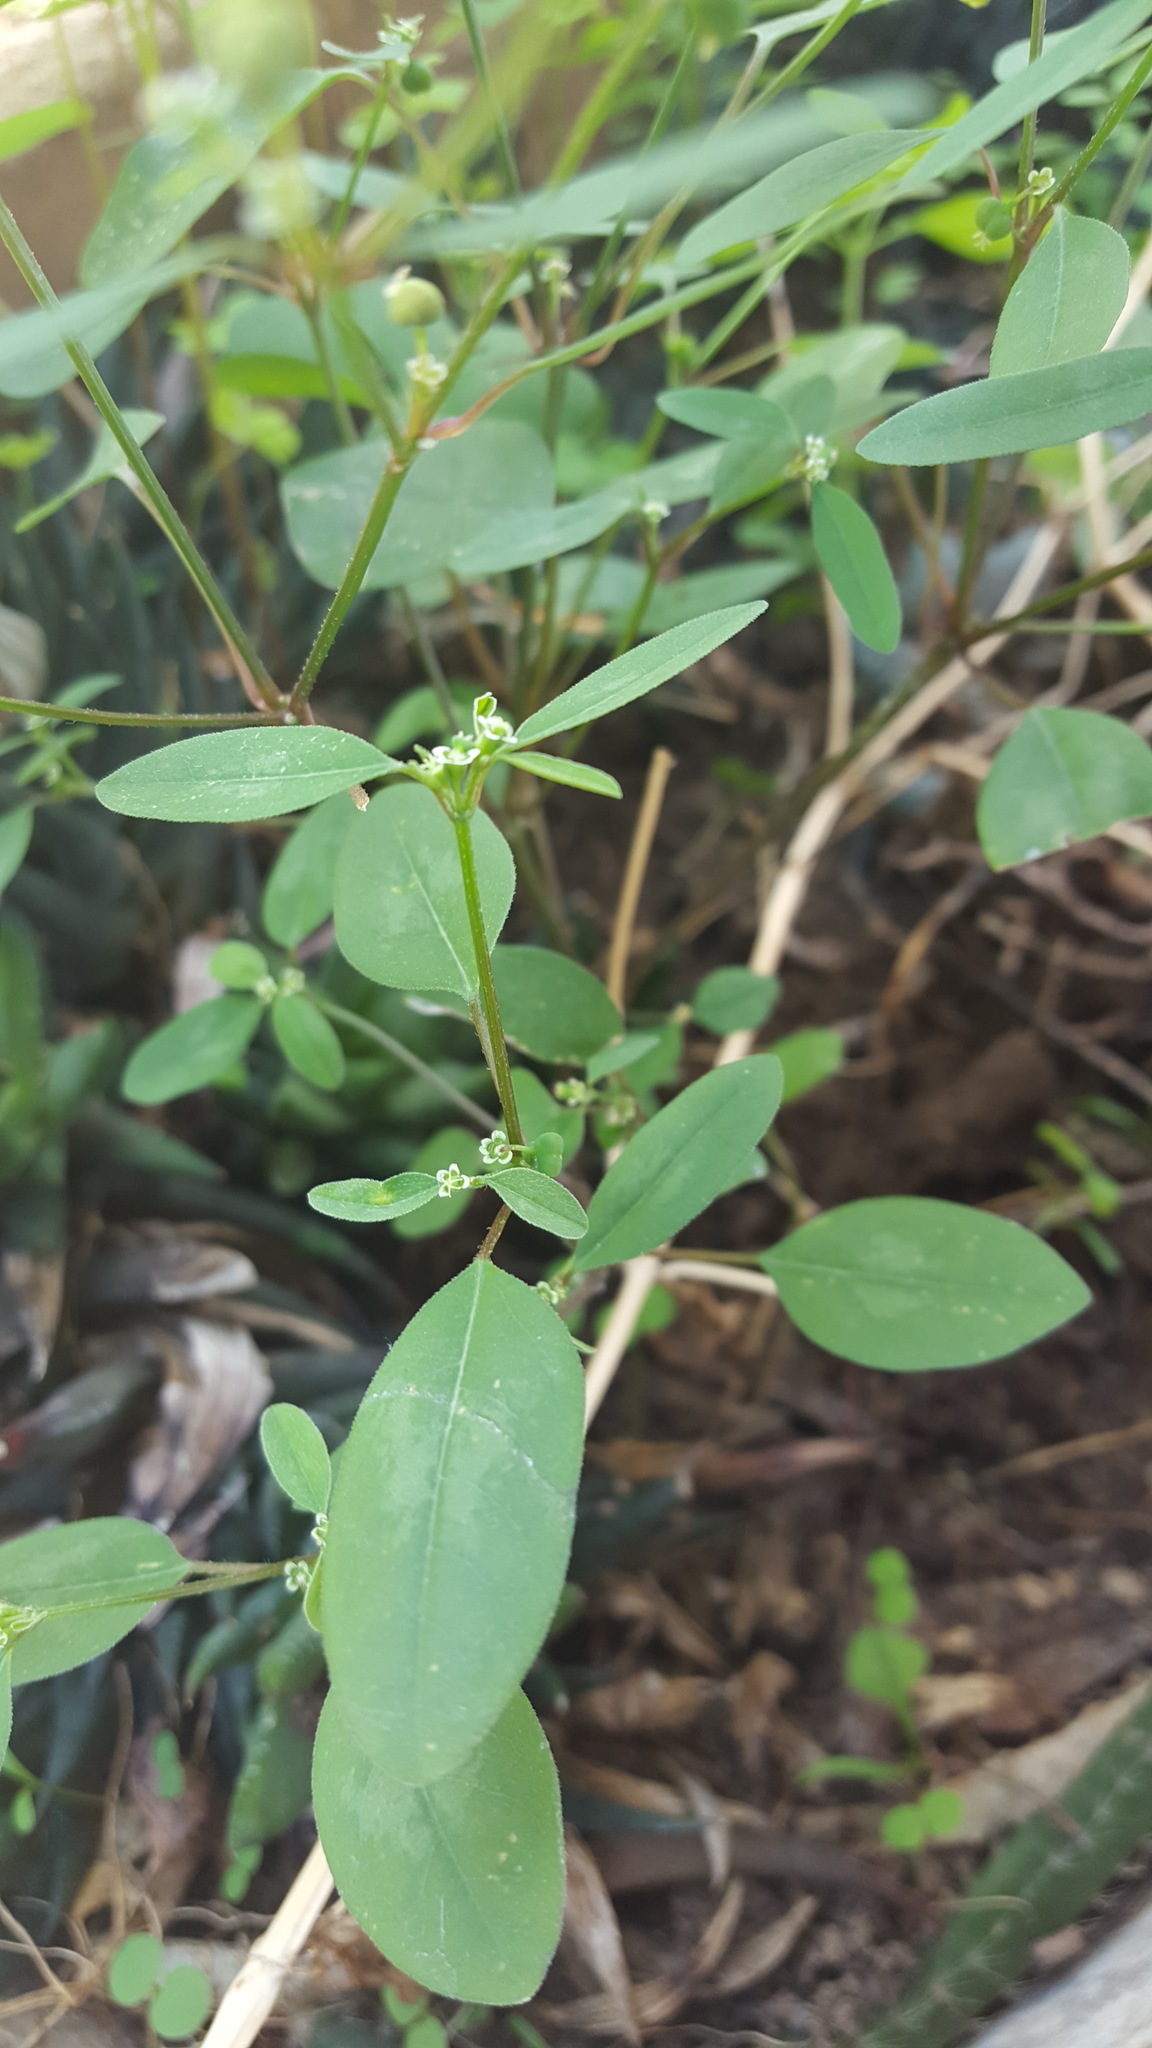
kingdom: Plantae
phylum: Tracheophyta
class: Magnoliopsida
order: Malpighiales
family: Euphorbiaceae
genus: Euphorbia
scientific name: Euphorbia graminea
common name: Grassleaf spurge
